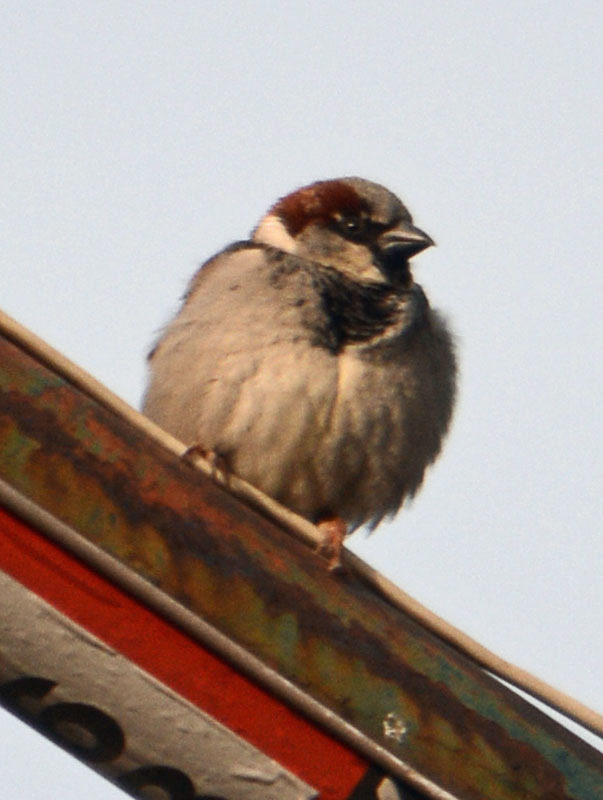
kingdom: Animalia
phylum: Chordata
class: Aves
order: Passeriformes
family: Passeridae
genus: Passer
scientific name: Passer domesticus
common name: House sparrow
